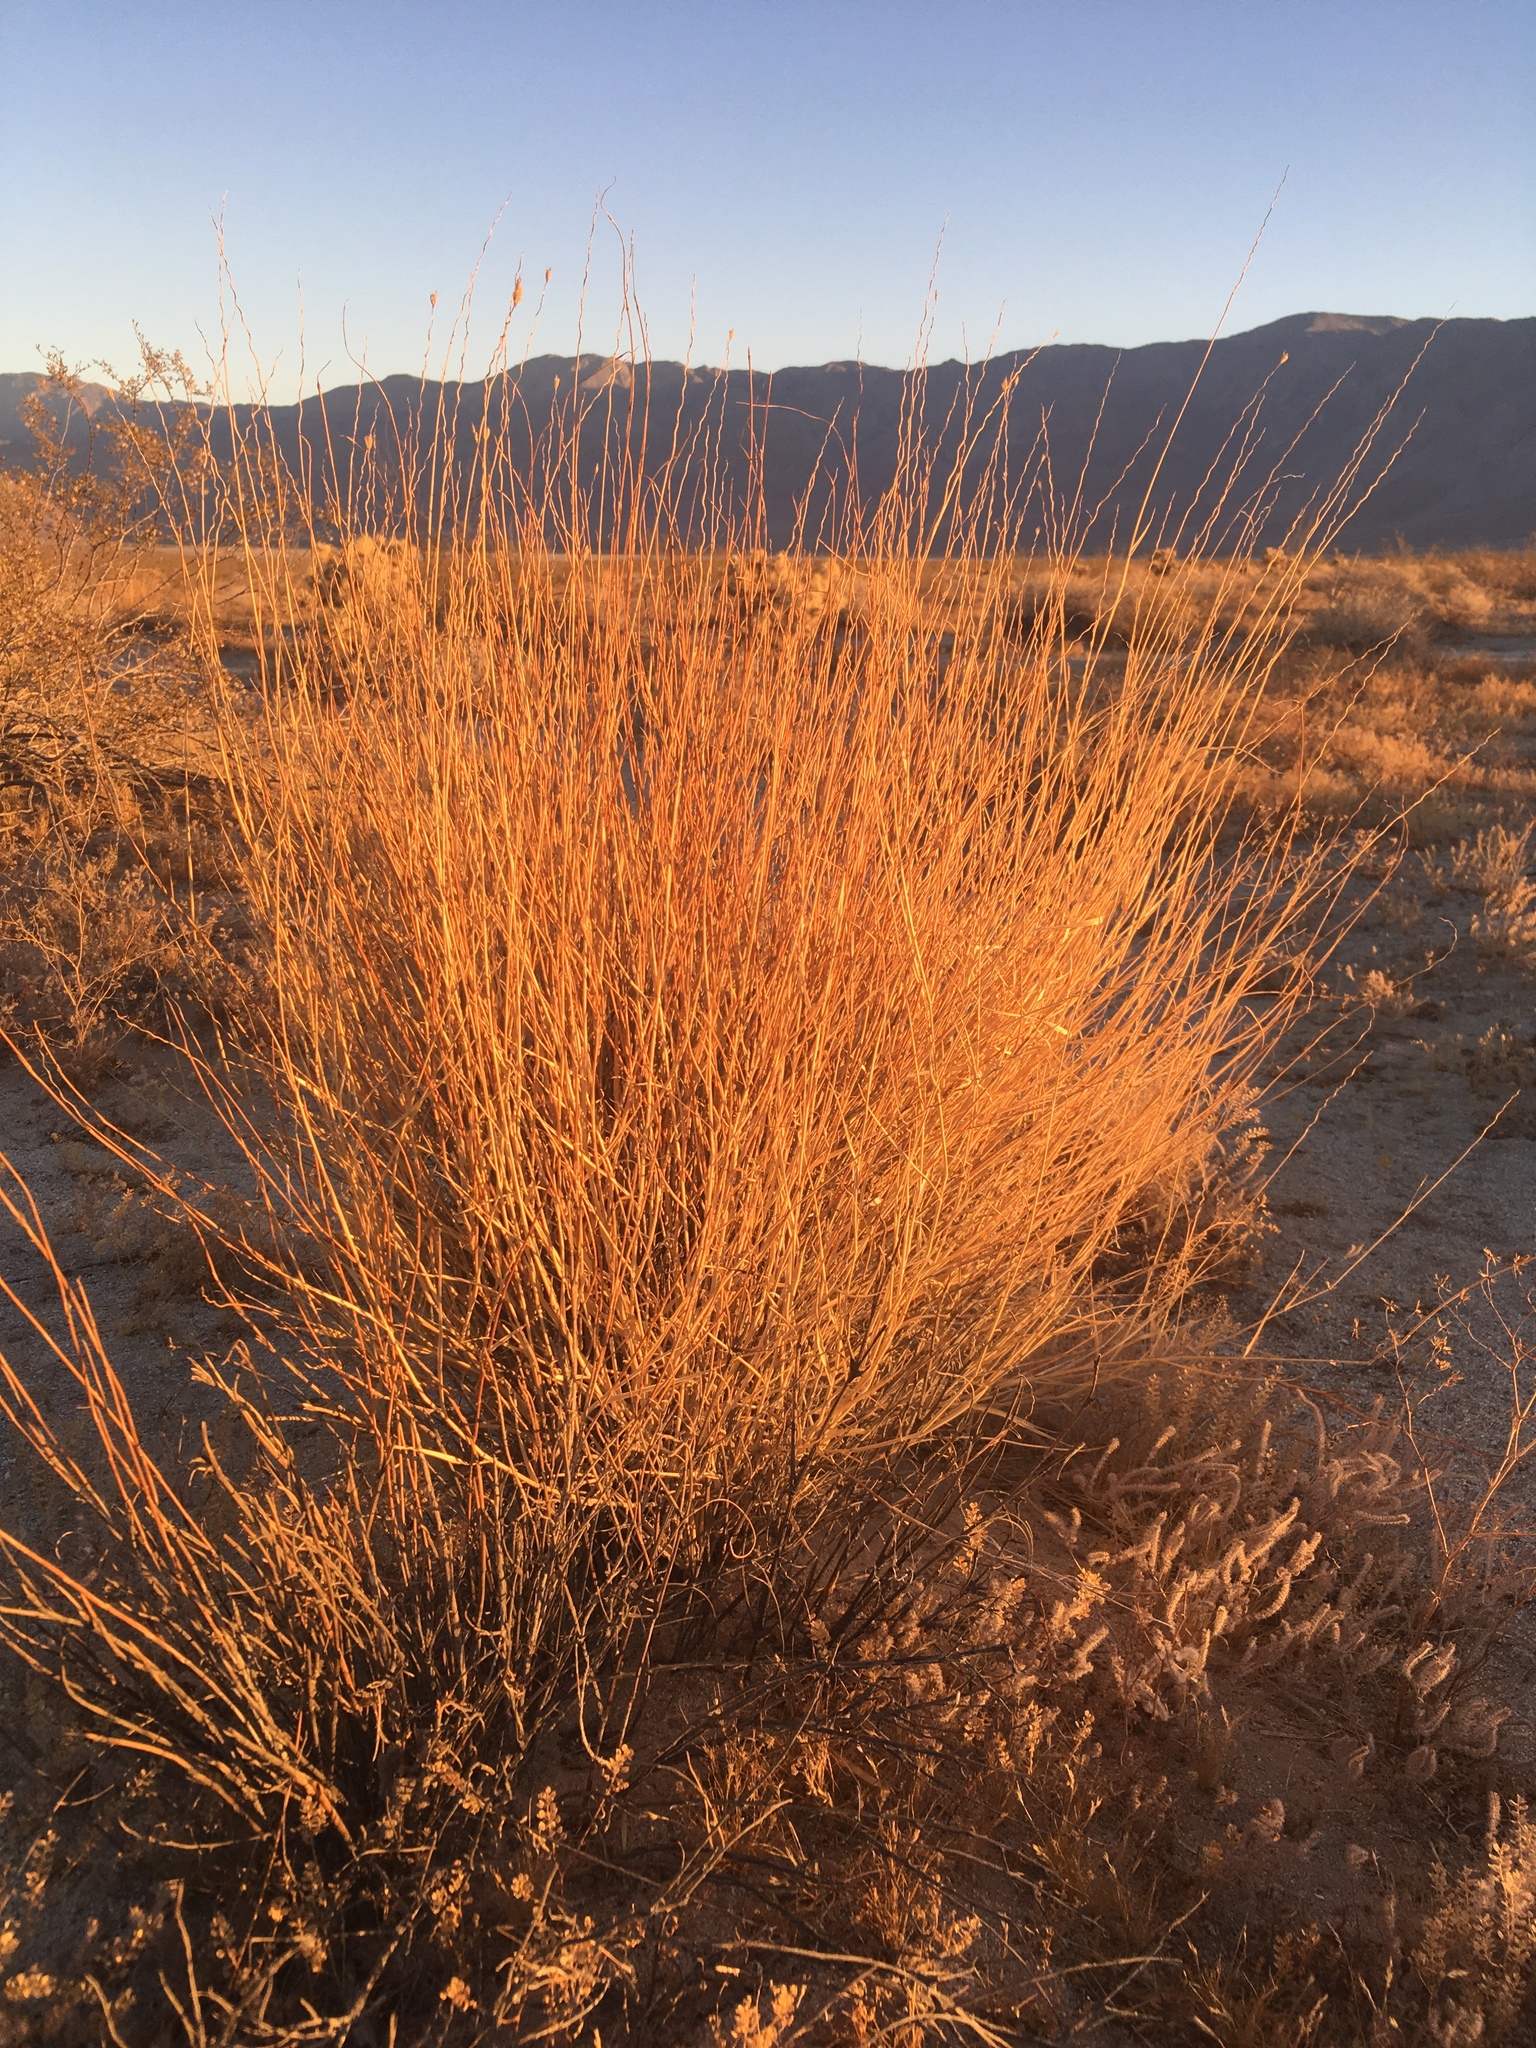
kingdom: Plantae
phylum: Tracheophyta
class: Liliopsida
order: Poales
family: Poaceae
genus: Hilaria
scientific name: Hilaria rigida
